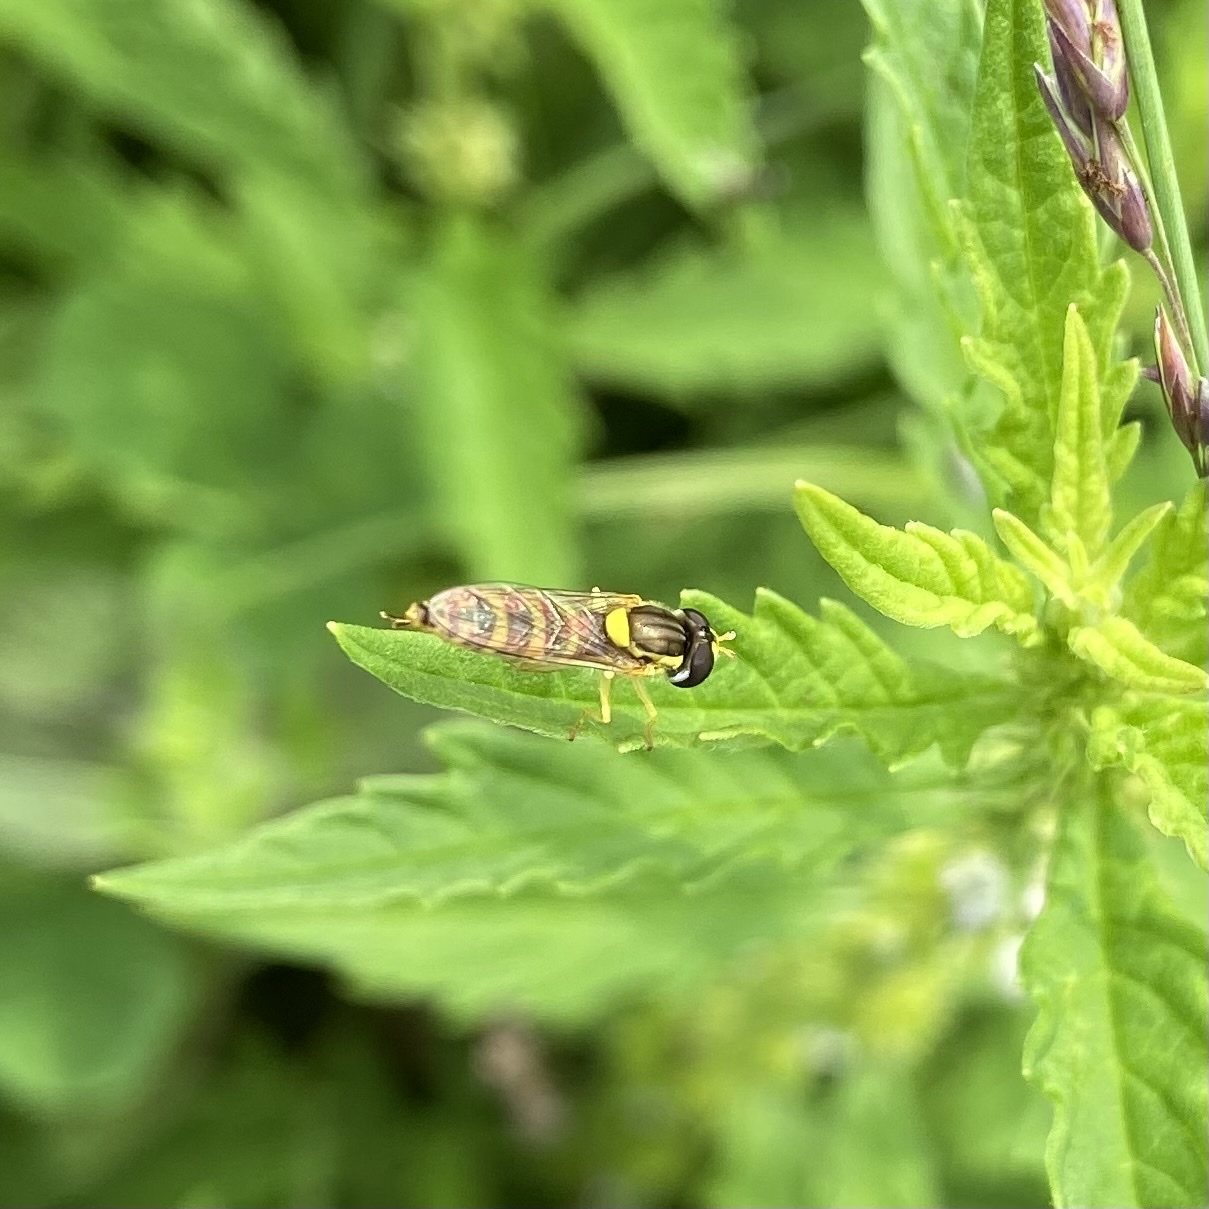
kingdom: Animalia
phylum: Arthropoda
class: Insecta
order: Diptera
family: Syrphidae
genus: Sphaerophoria
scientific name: Sphaerophoria
